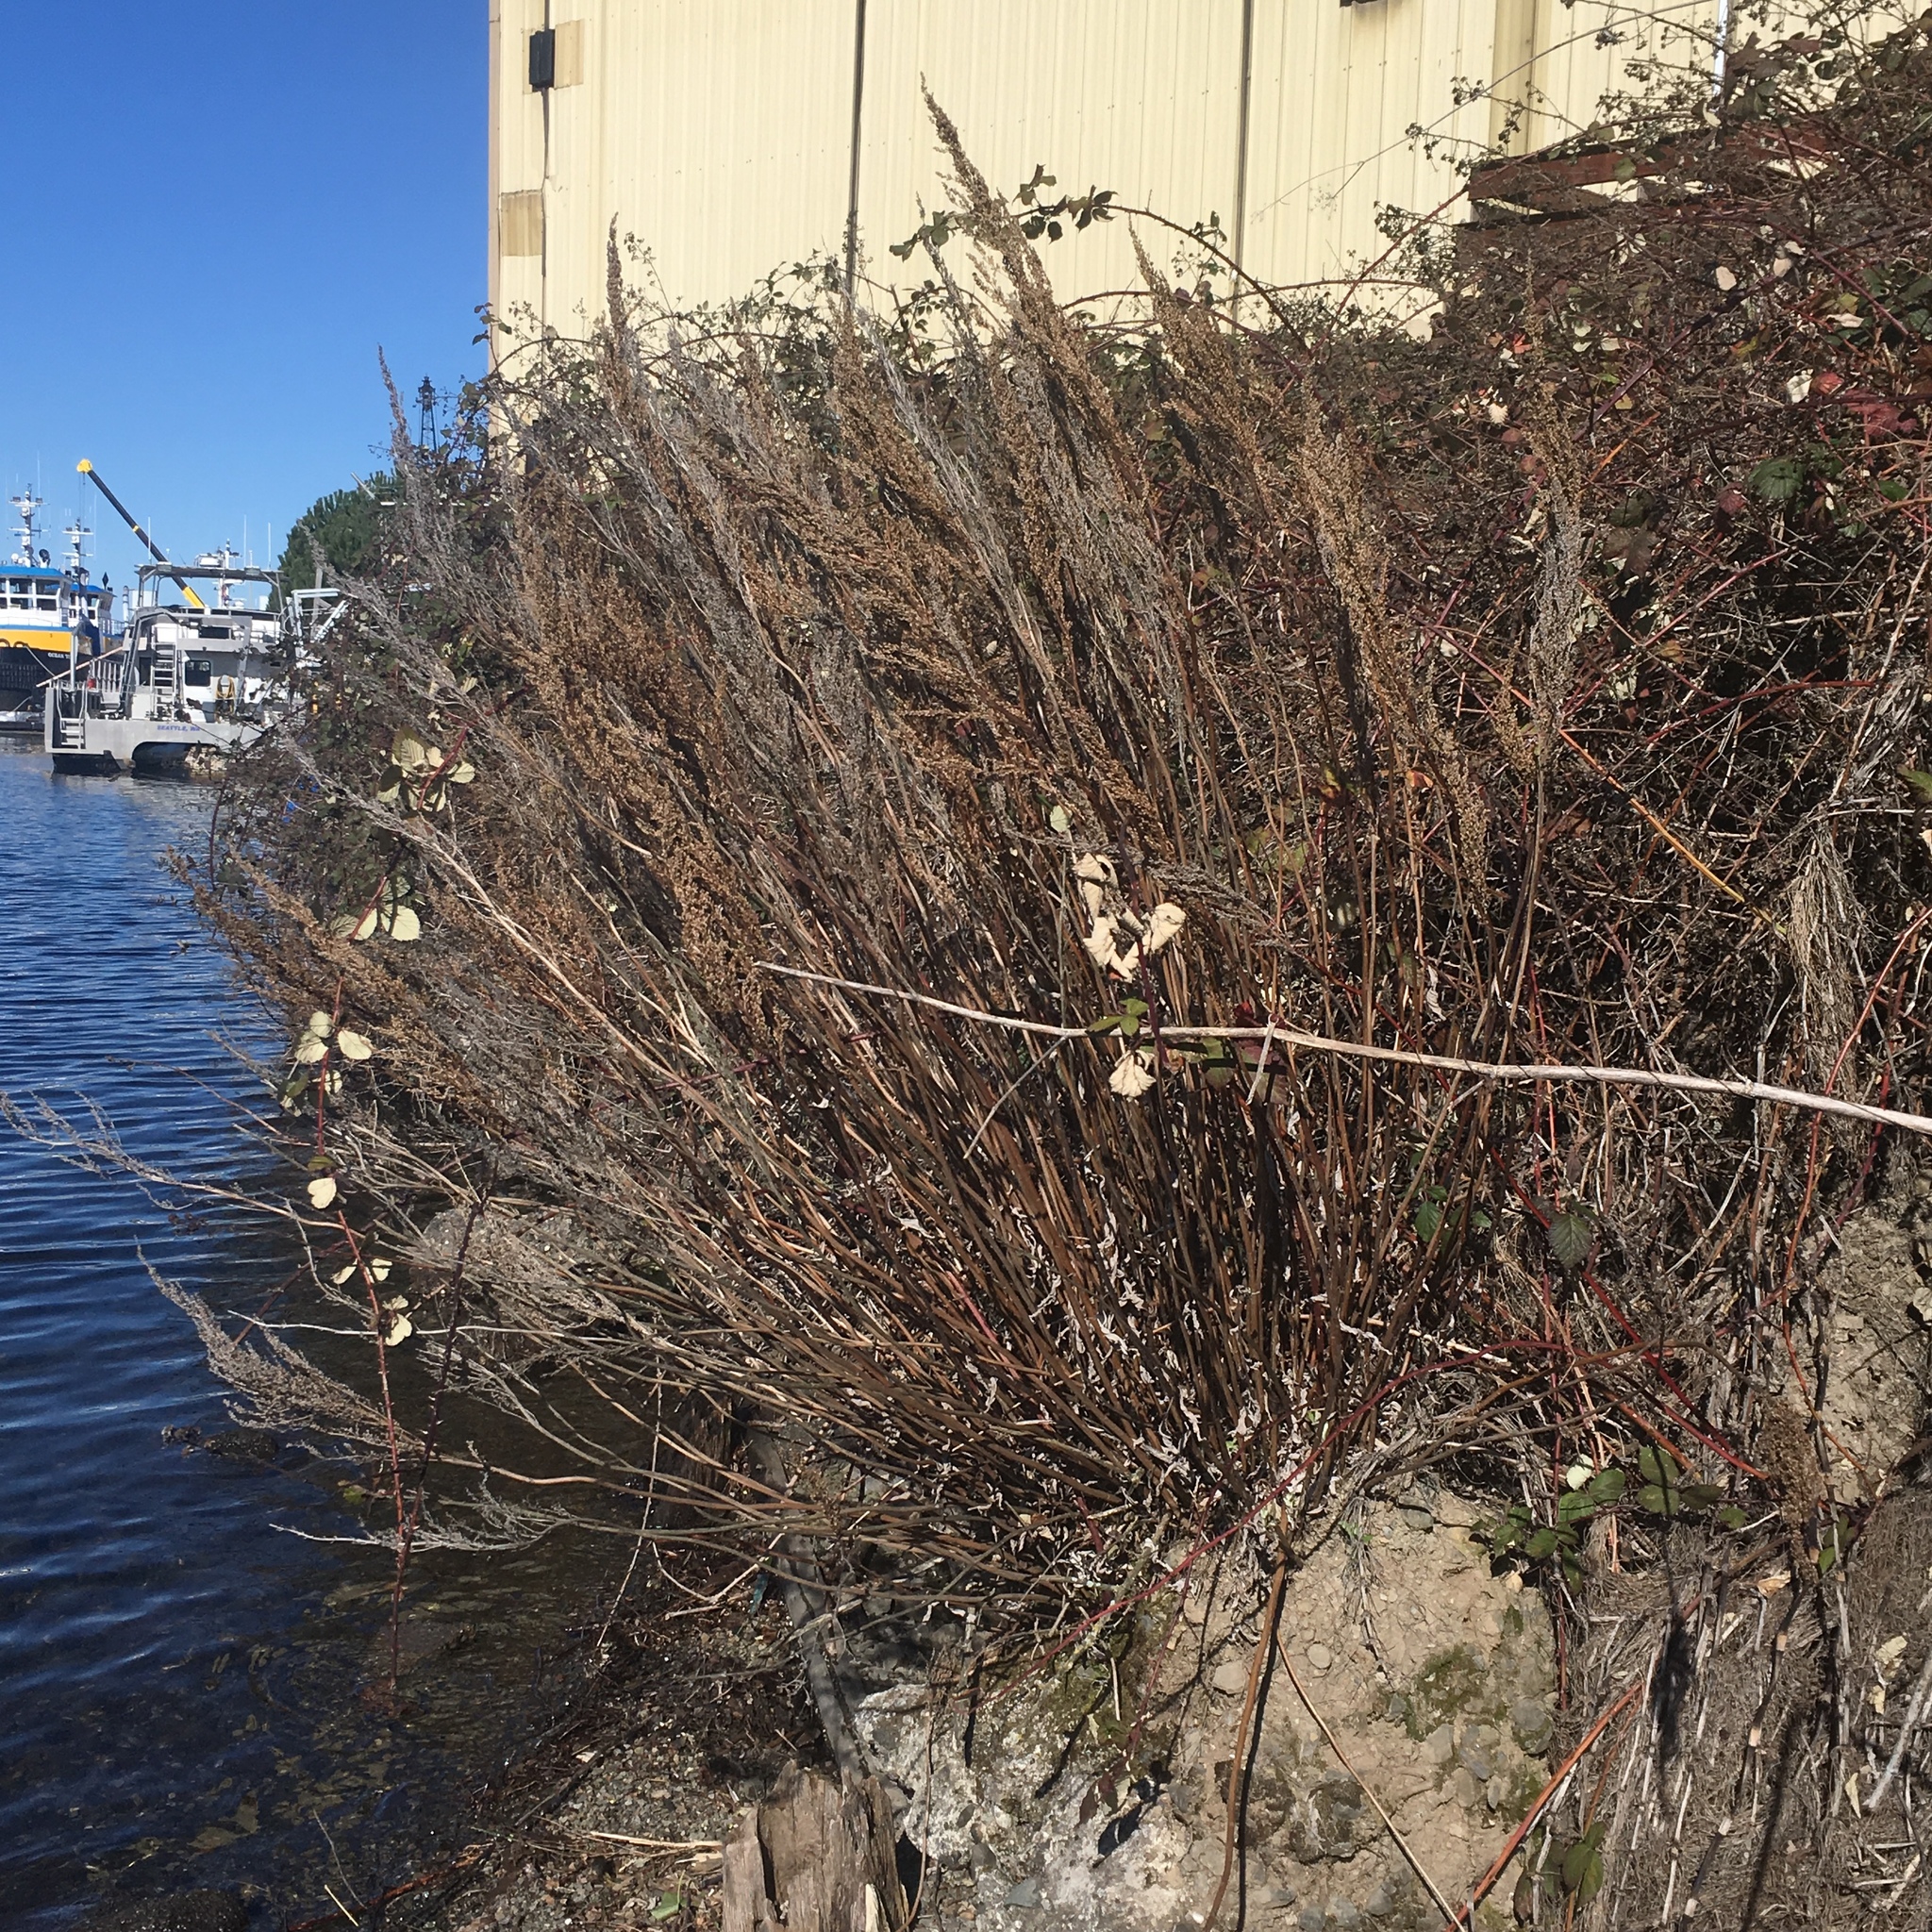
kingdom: Plantae
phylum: Tracheophyta
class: Magnoliopsida
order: Asterales
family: Asteraceae
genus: Artemisia
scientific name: Artemisia suksdorfii
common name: Suksdorf sagewort
